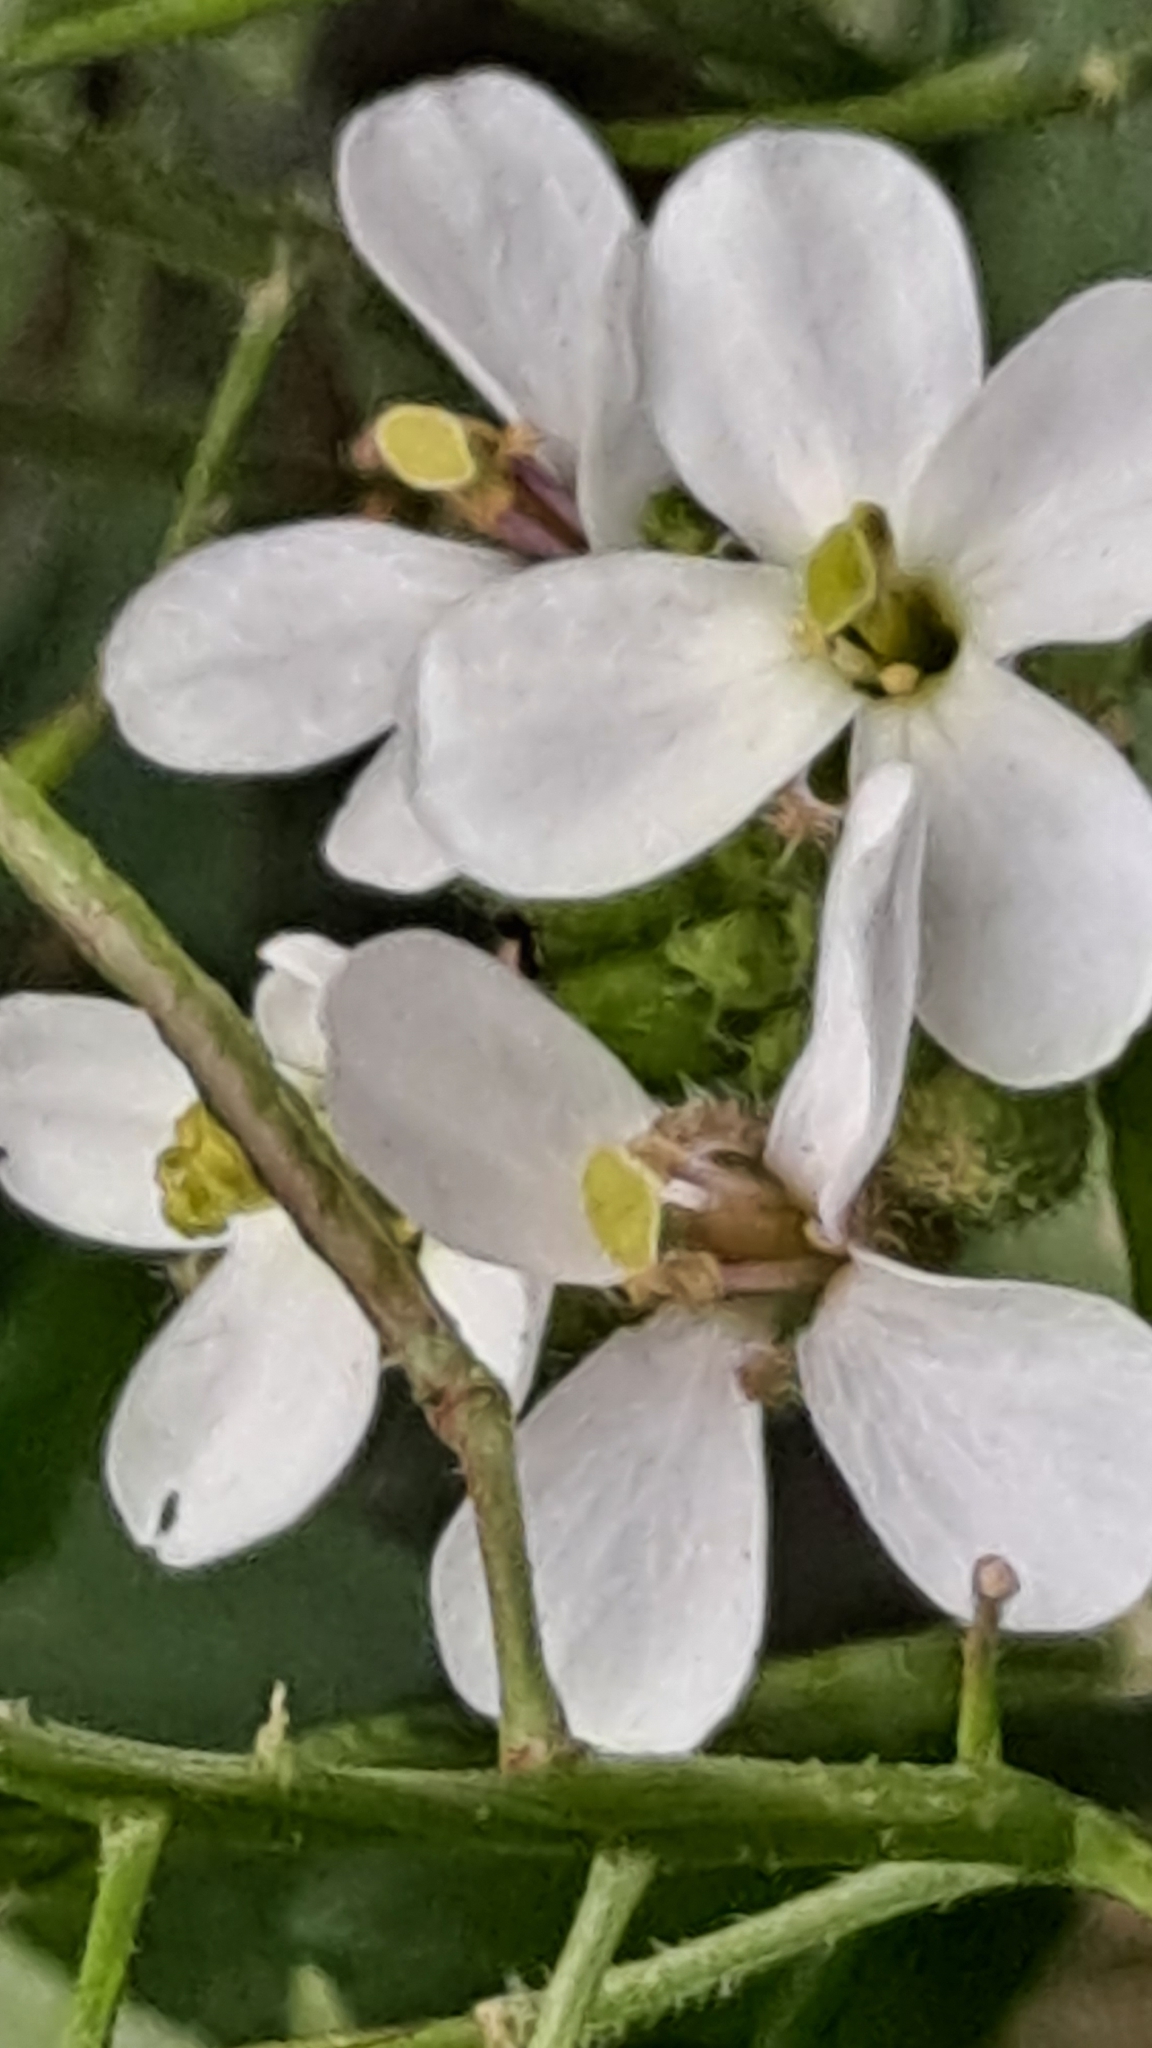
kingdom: Plantae
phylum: Tracheophyta
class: Magnoliopsida
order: Brassicales
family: Brassicaceae
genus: Diplotaxis
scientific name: Diplotaxis erucoides
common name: White rocket
